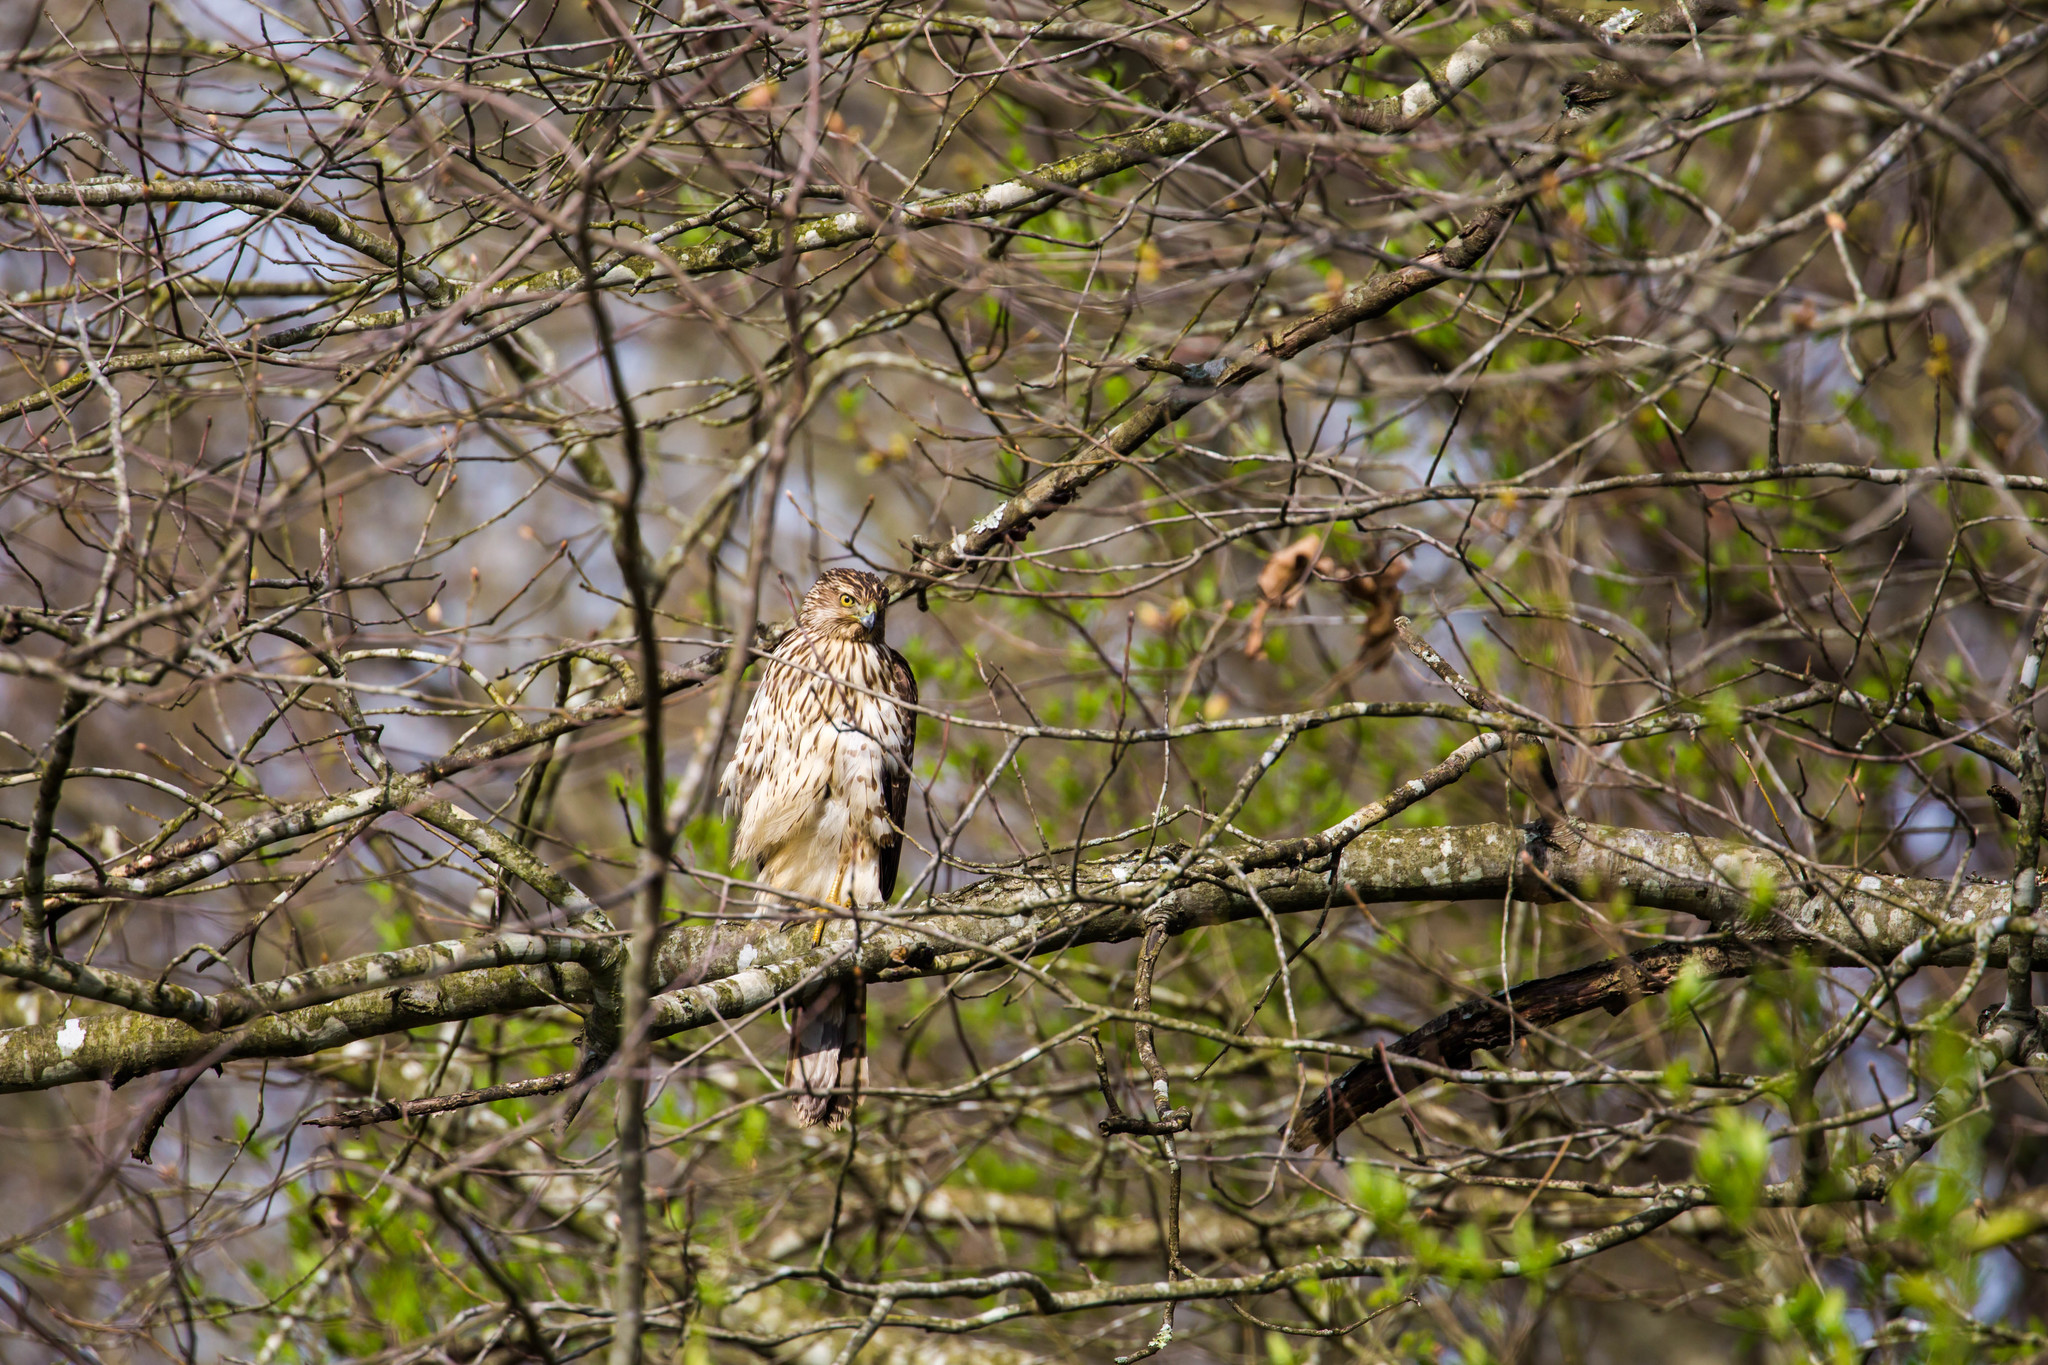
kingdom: Animalia
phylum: Chordata
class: Aves
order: Accipitriformes
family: Accipitridae
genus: Accipiter
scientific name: Accipiter cooperii
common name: Cooper's hawk
